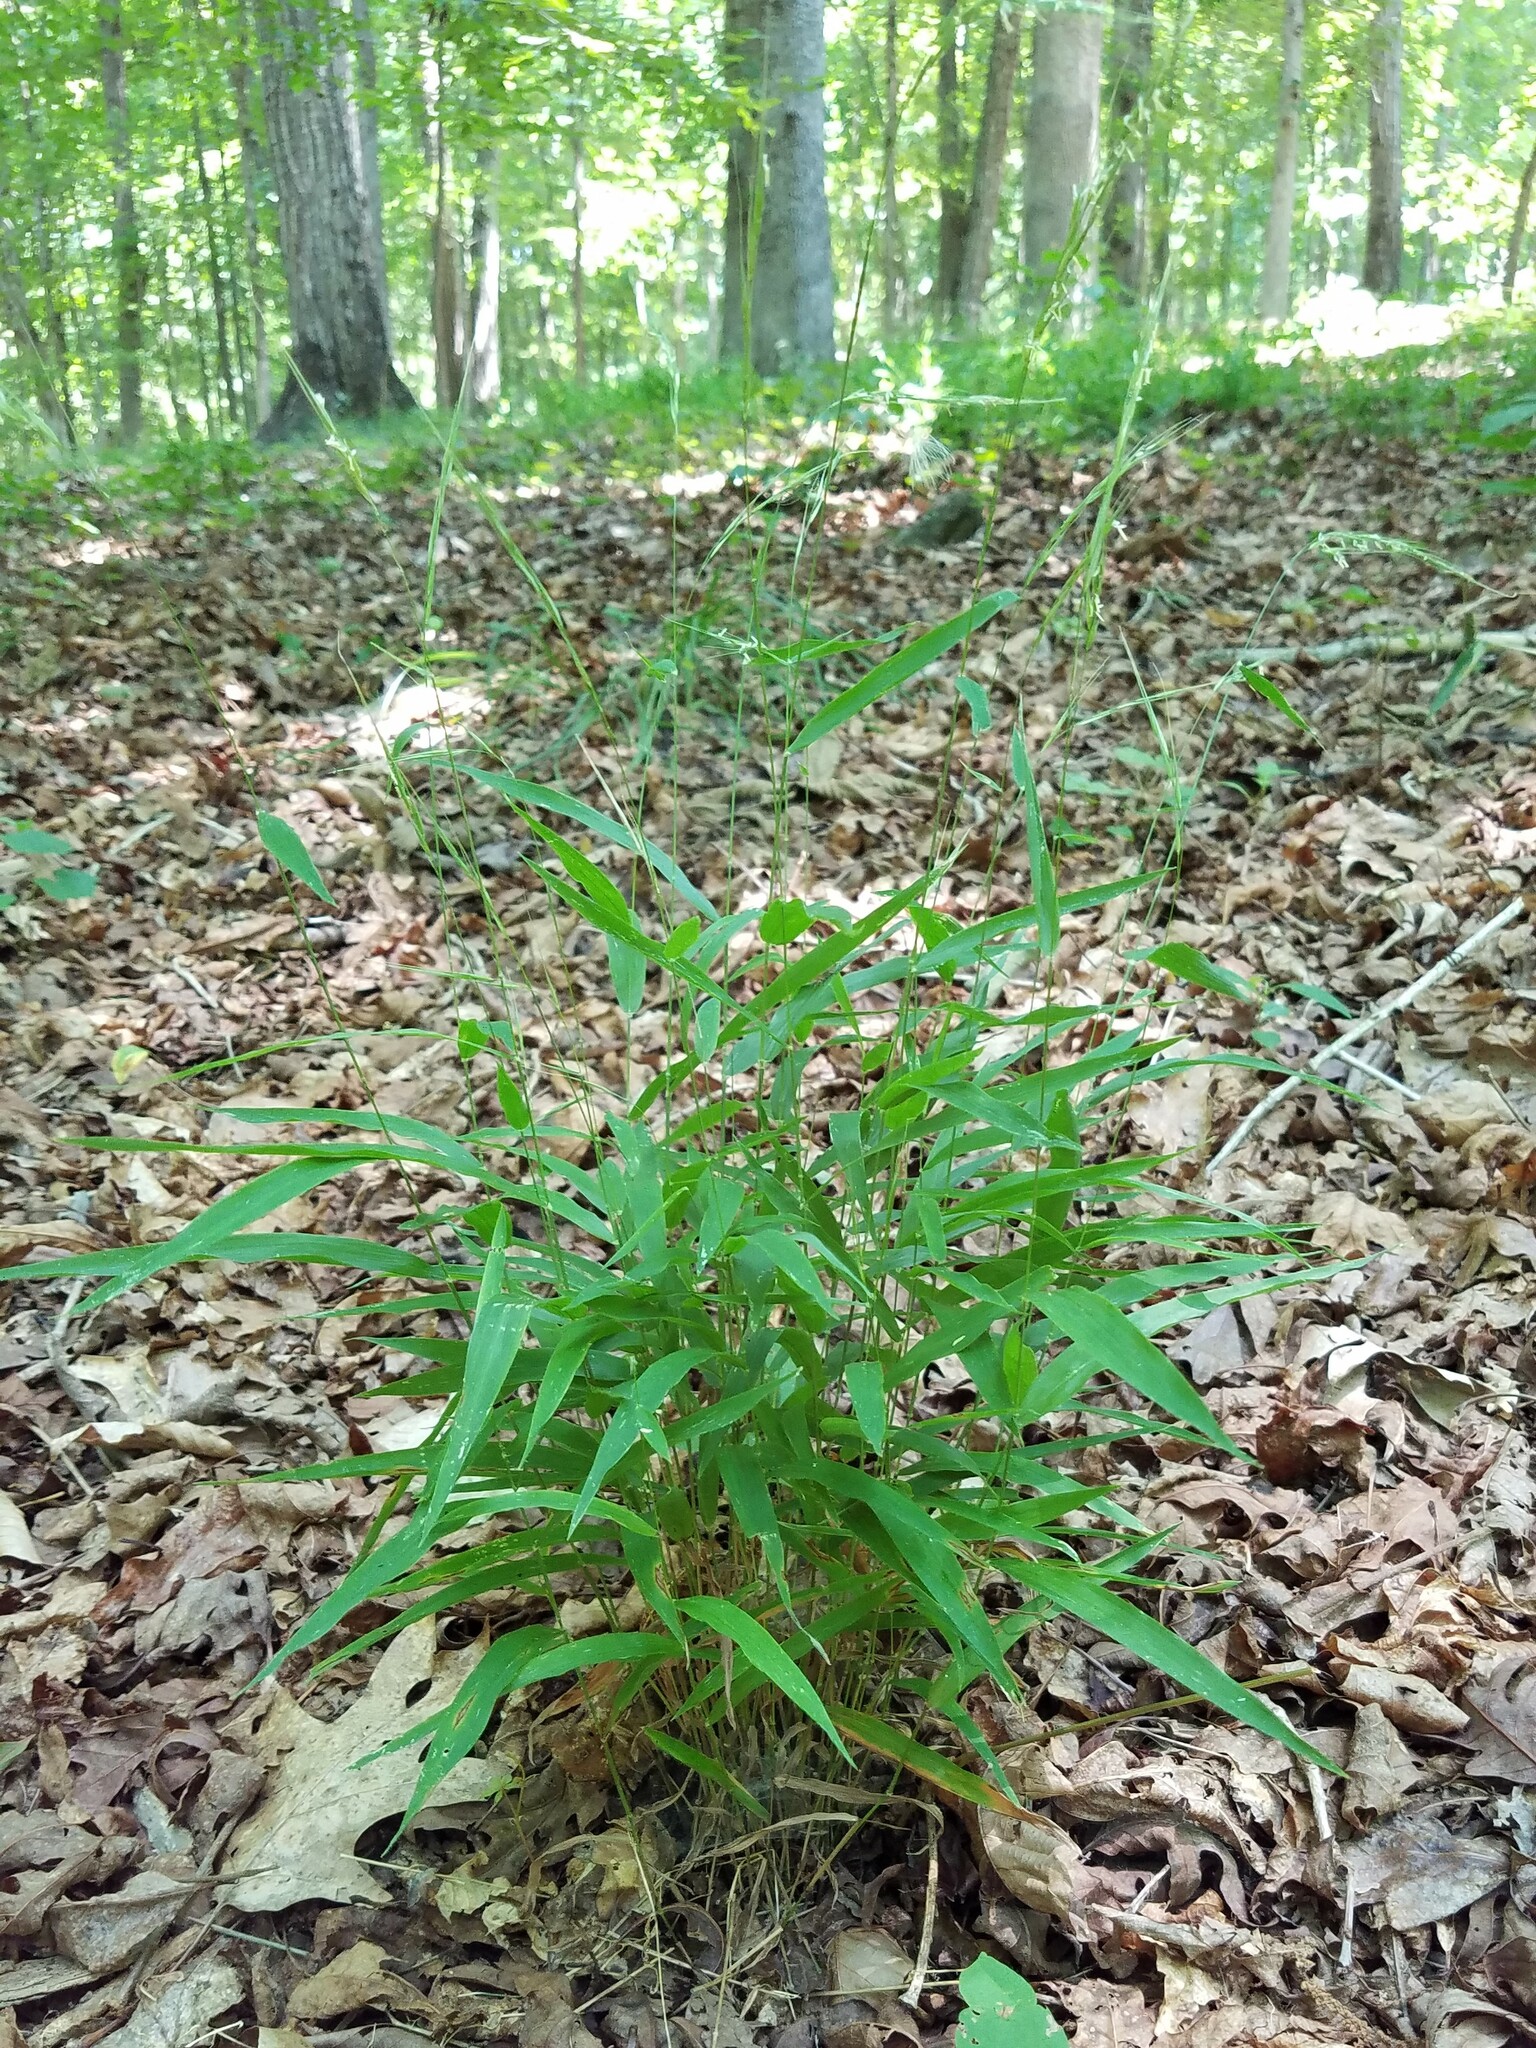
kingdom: Plantae
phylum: Tracheophyta
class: Liliopsida
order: Poales
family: Poaceae
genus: Brachyelytrum
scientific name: Brachyelytrum erectum
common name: Bearded shorthusk
